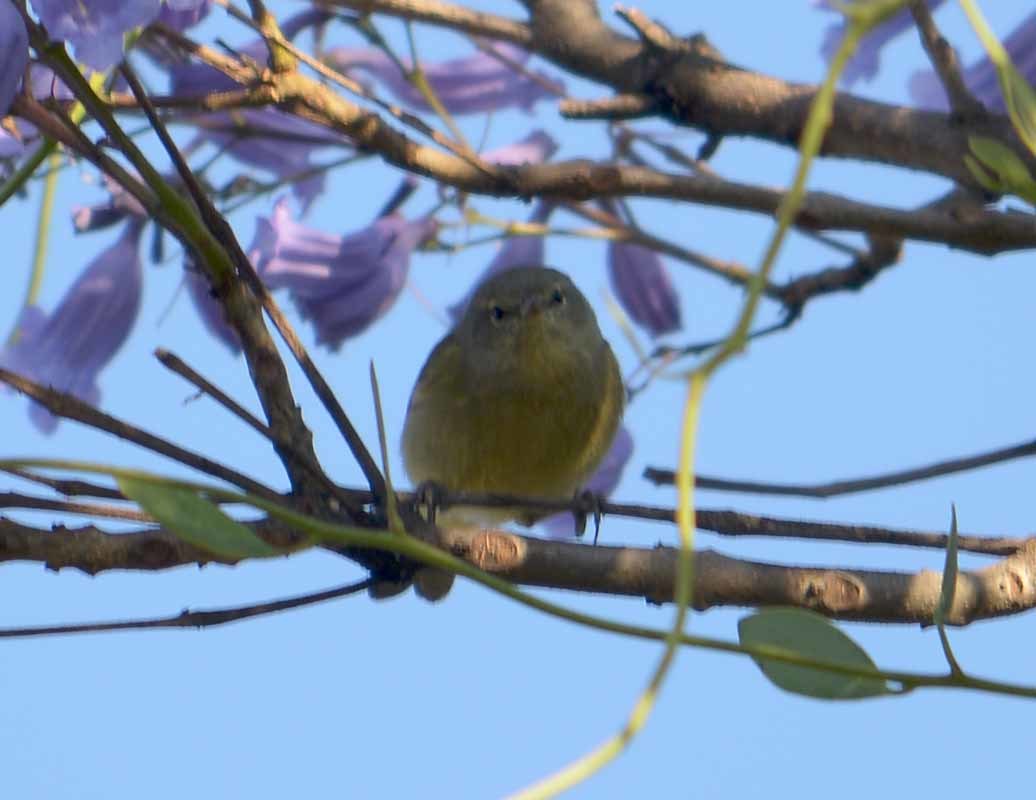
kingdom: Animalia
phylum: Chordata
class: Aves
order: Passeriformes
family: Parulidae
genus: Leiothlypis
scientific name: Leiothlypis celata
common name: Orange-crowned warbler
